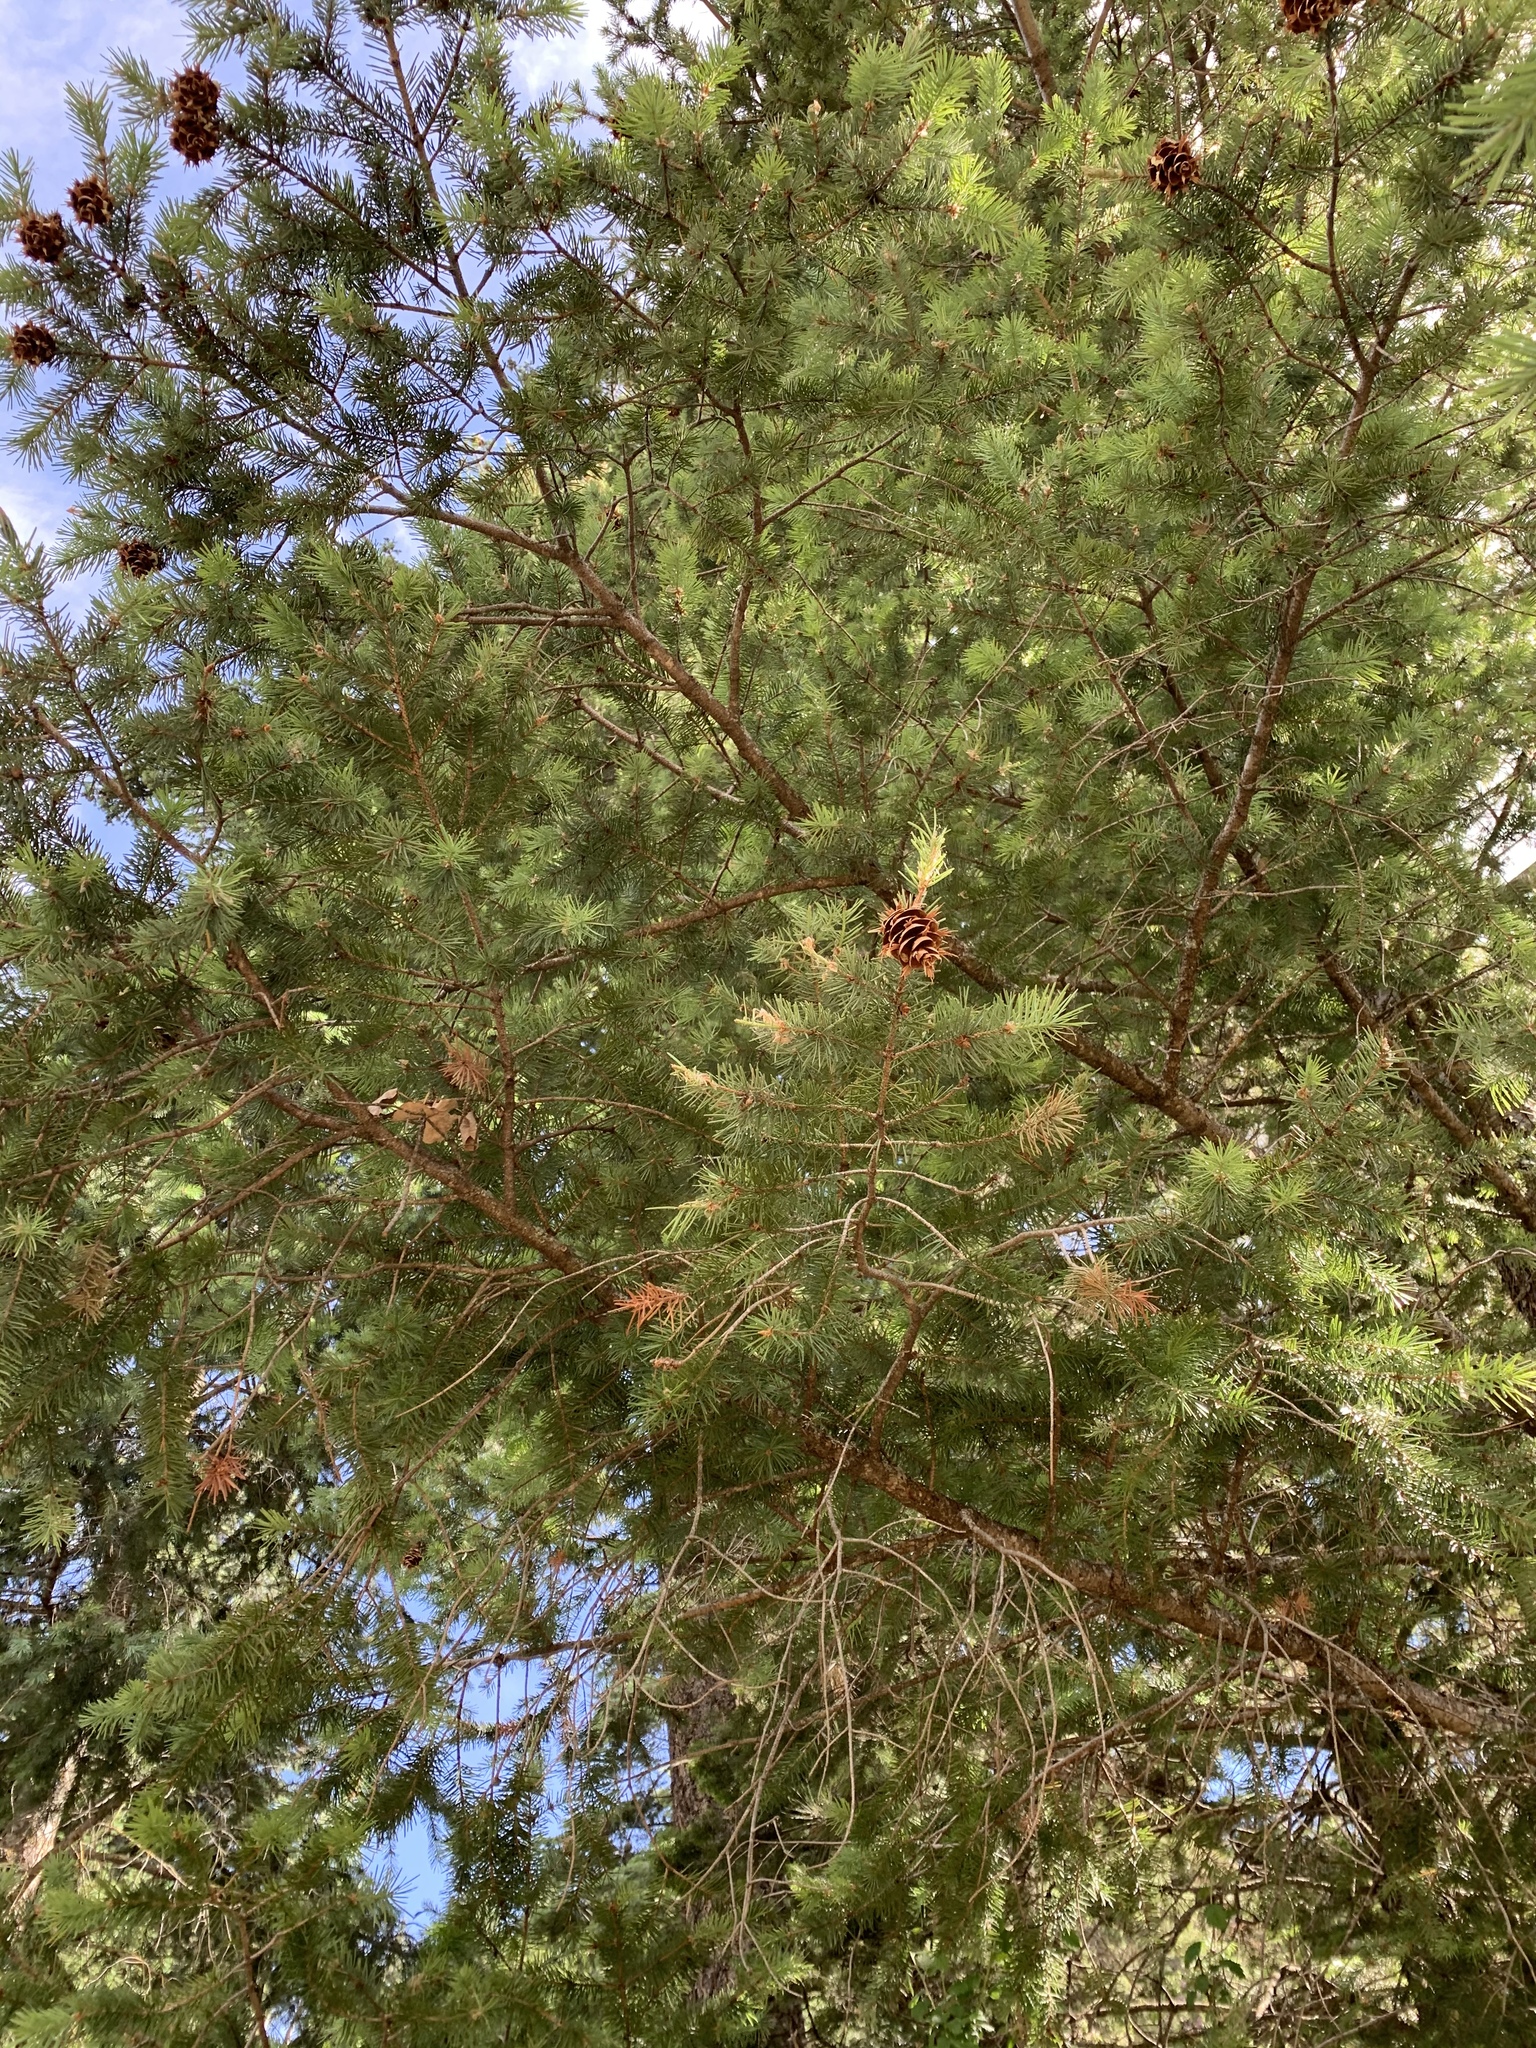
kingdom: Plantae
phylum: Tracheophyta
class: Pinopsida
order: Pinales
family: Pinaceae
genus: Pseudotsuga
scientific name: Pseudotsuga menziesii
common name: Douglas fir
